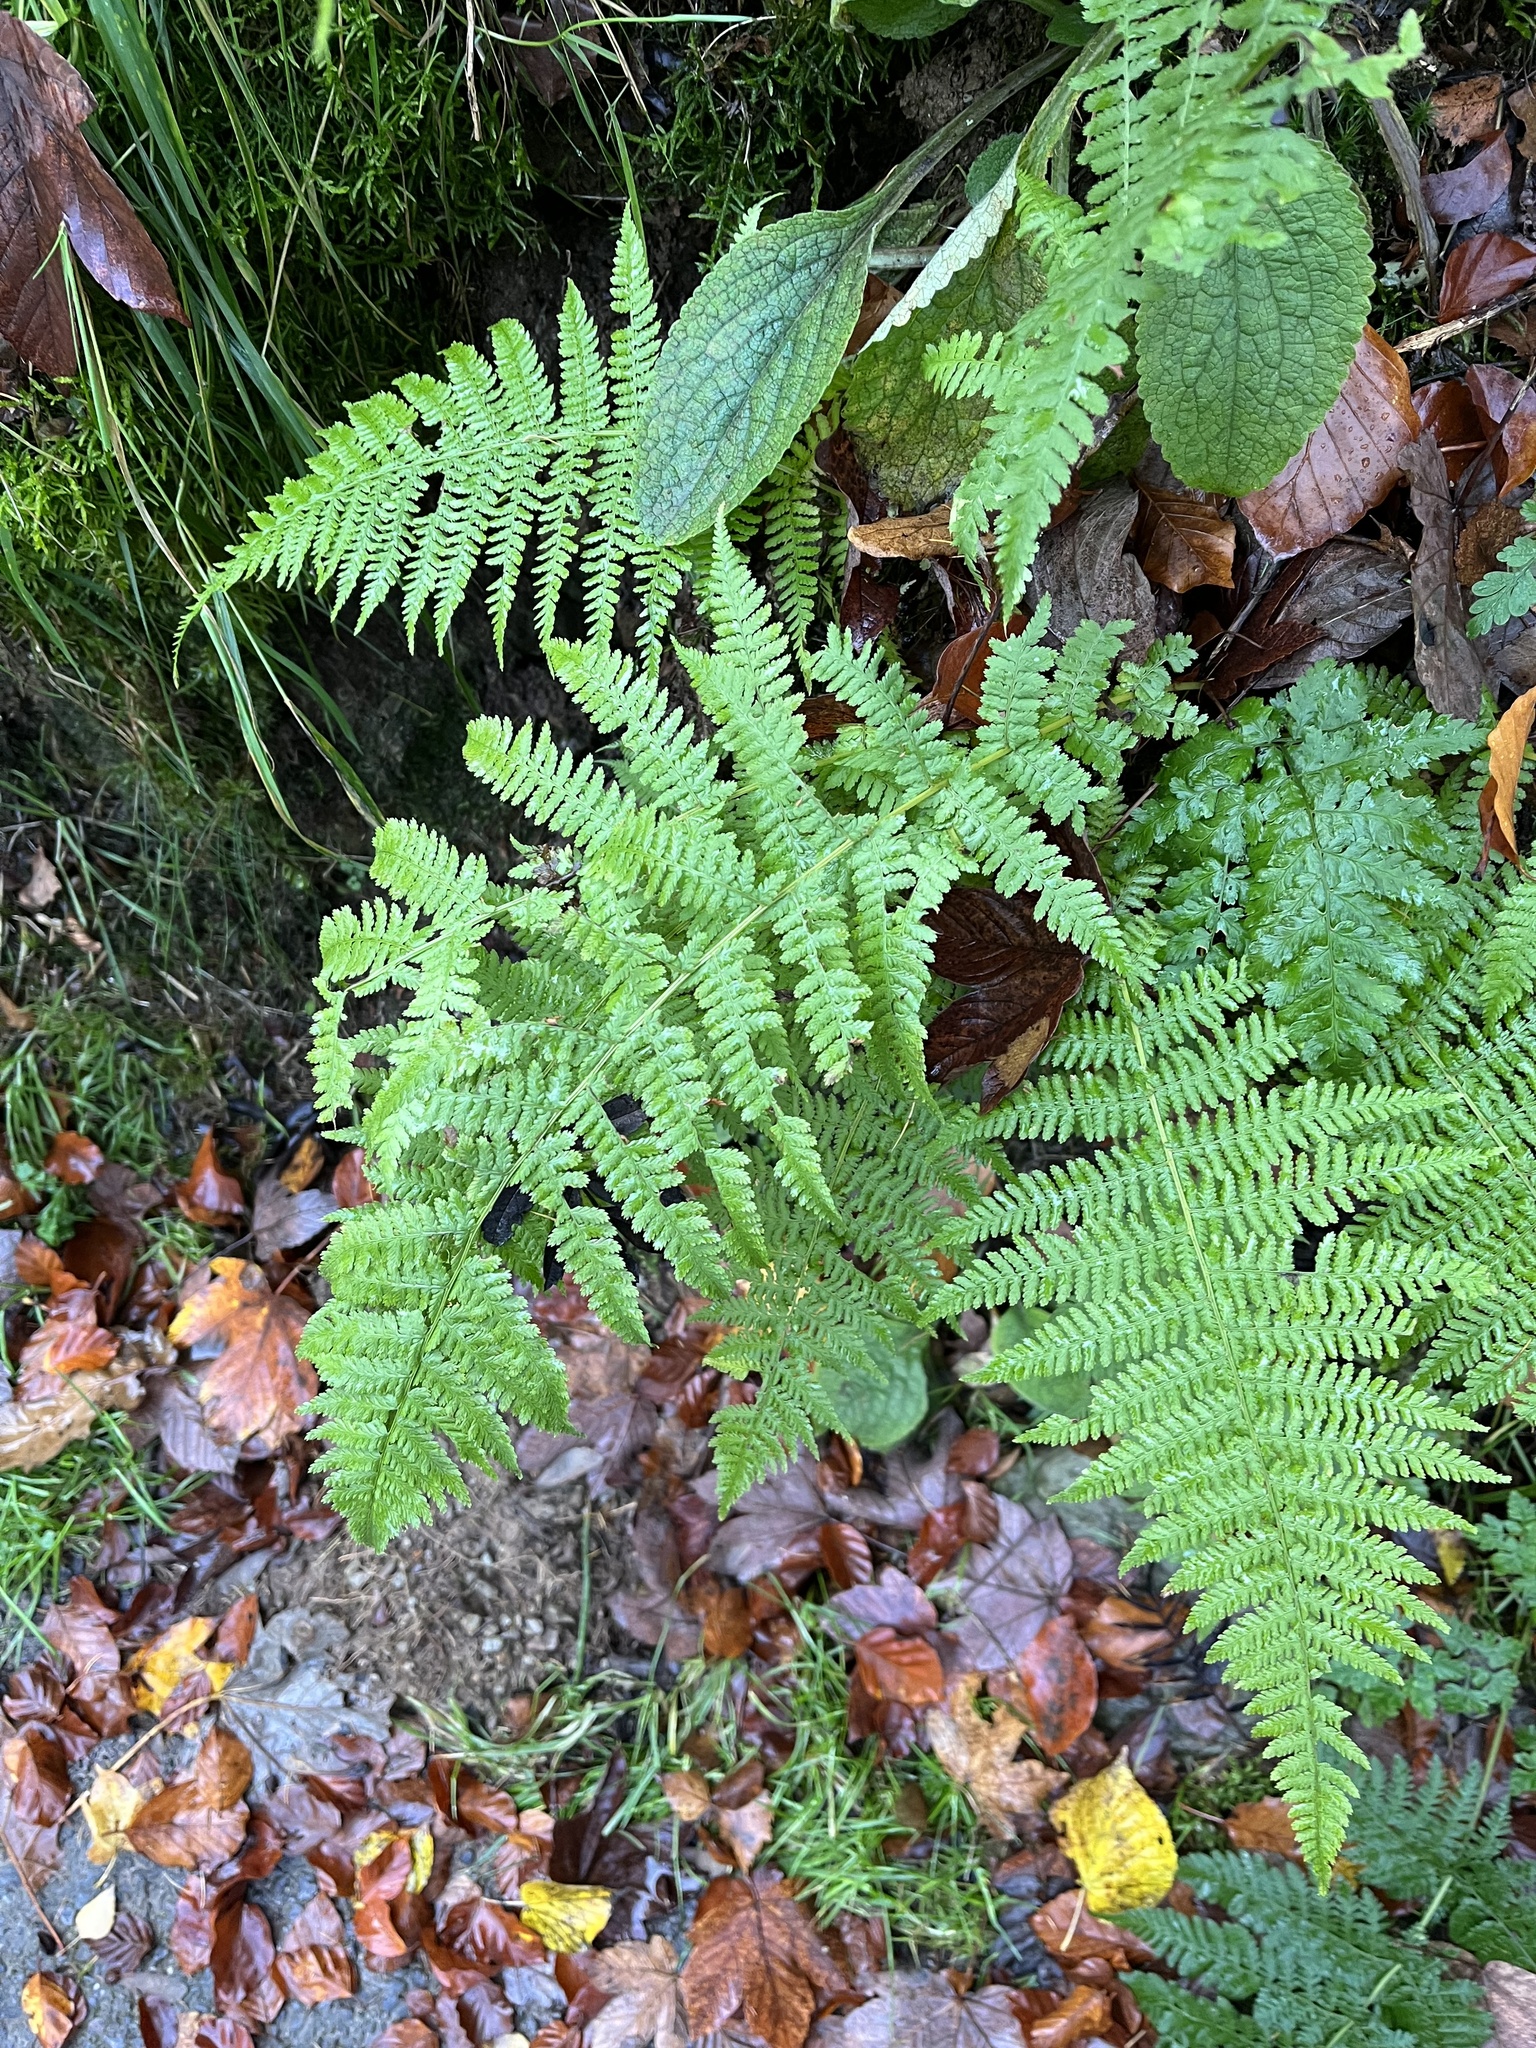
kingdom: Plantae
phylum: Tracheophyta
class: Polypodiopsida
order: Polypodiales
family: Athyriaceae
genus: Athyrium
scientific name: Athyrium filix-femina
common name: Lady fern
